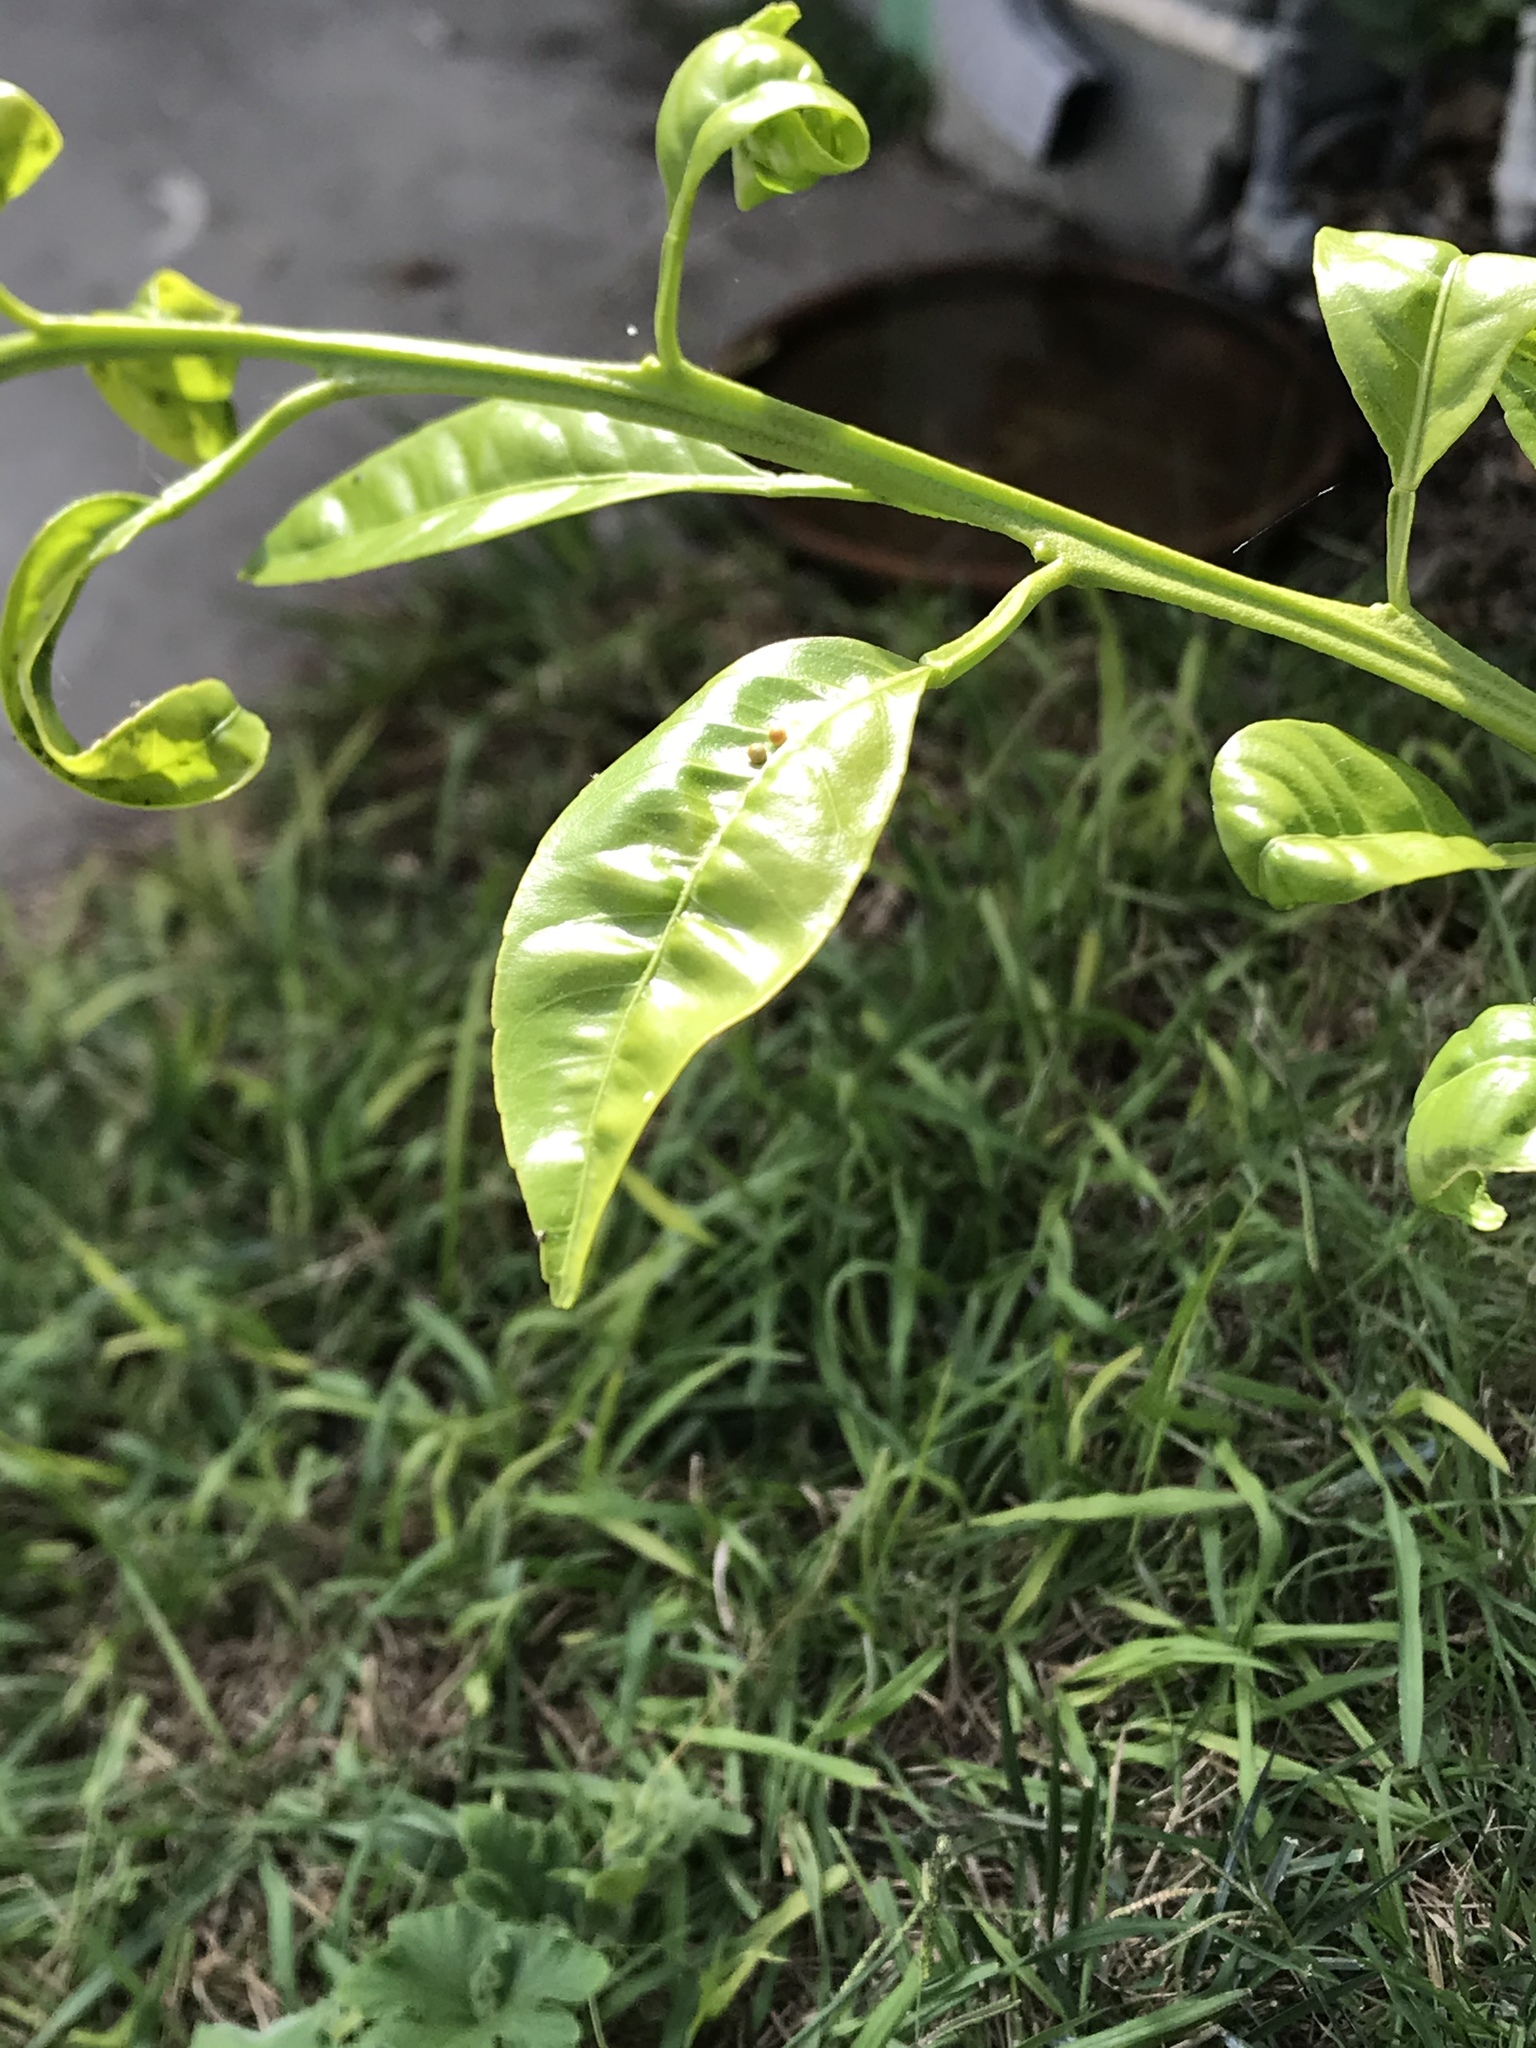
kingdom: Animalia
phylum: Arthropoda
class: Insecta
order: Lepidoptera
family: Papilionidae
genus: Papilio
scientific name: Papilio rumiko
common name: Western giant swallowtail
